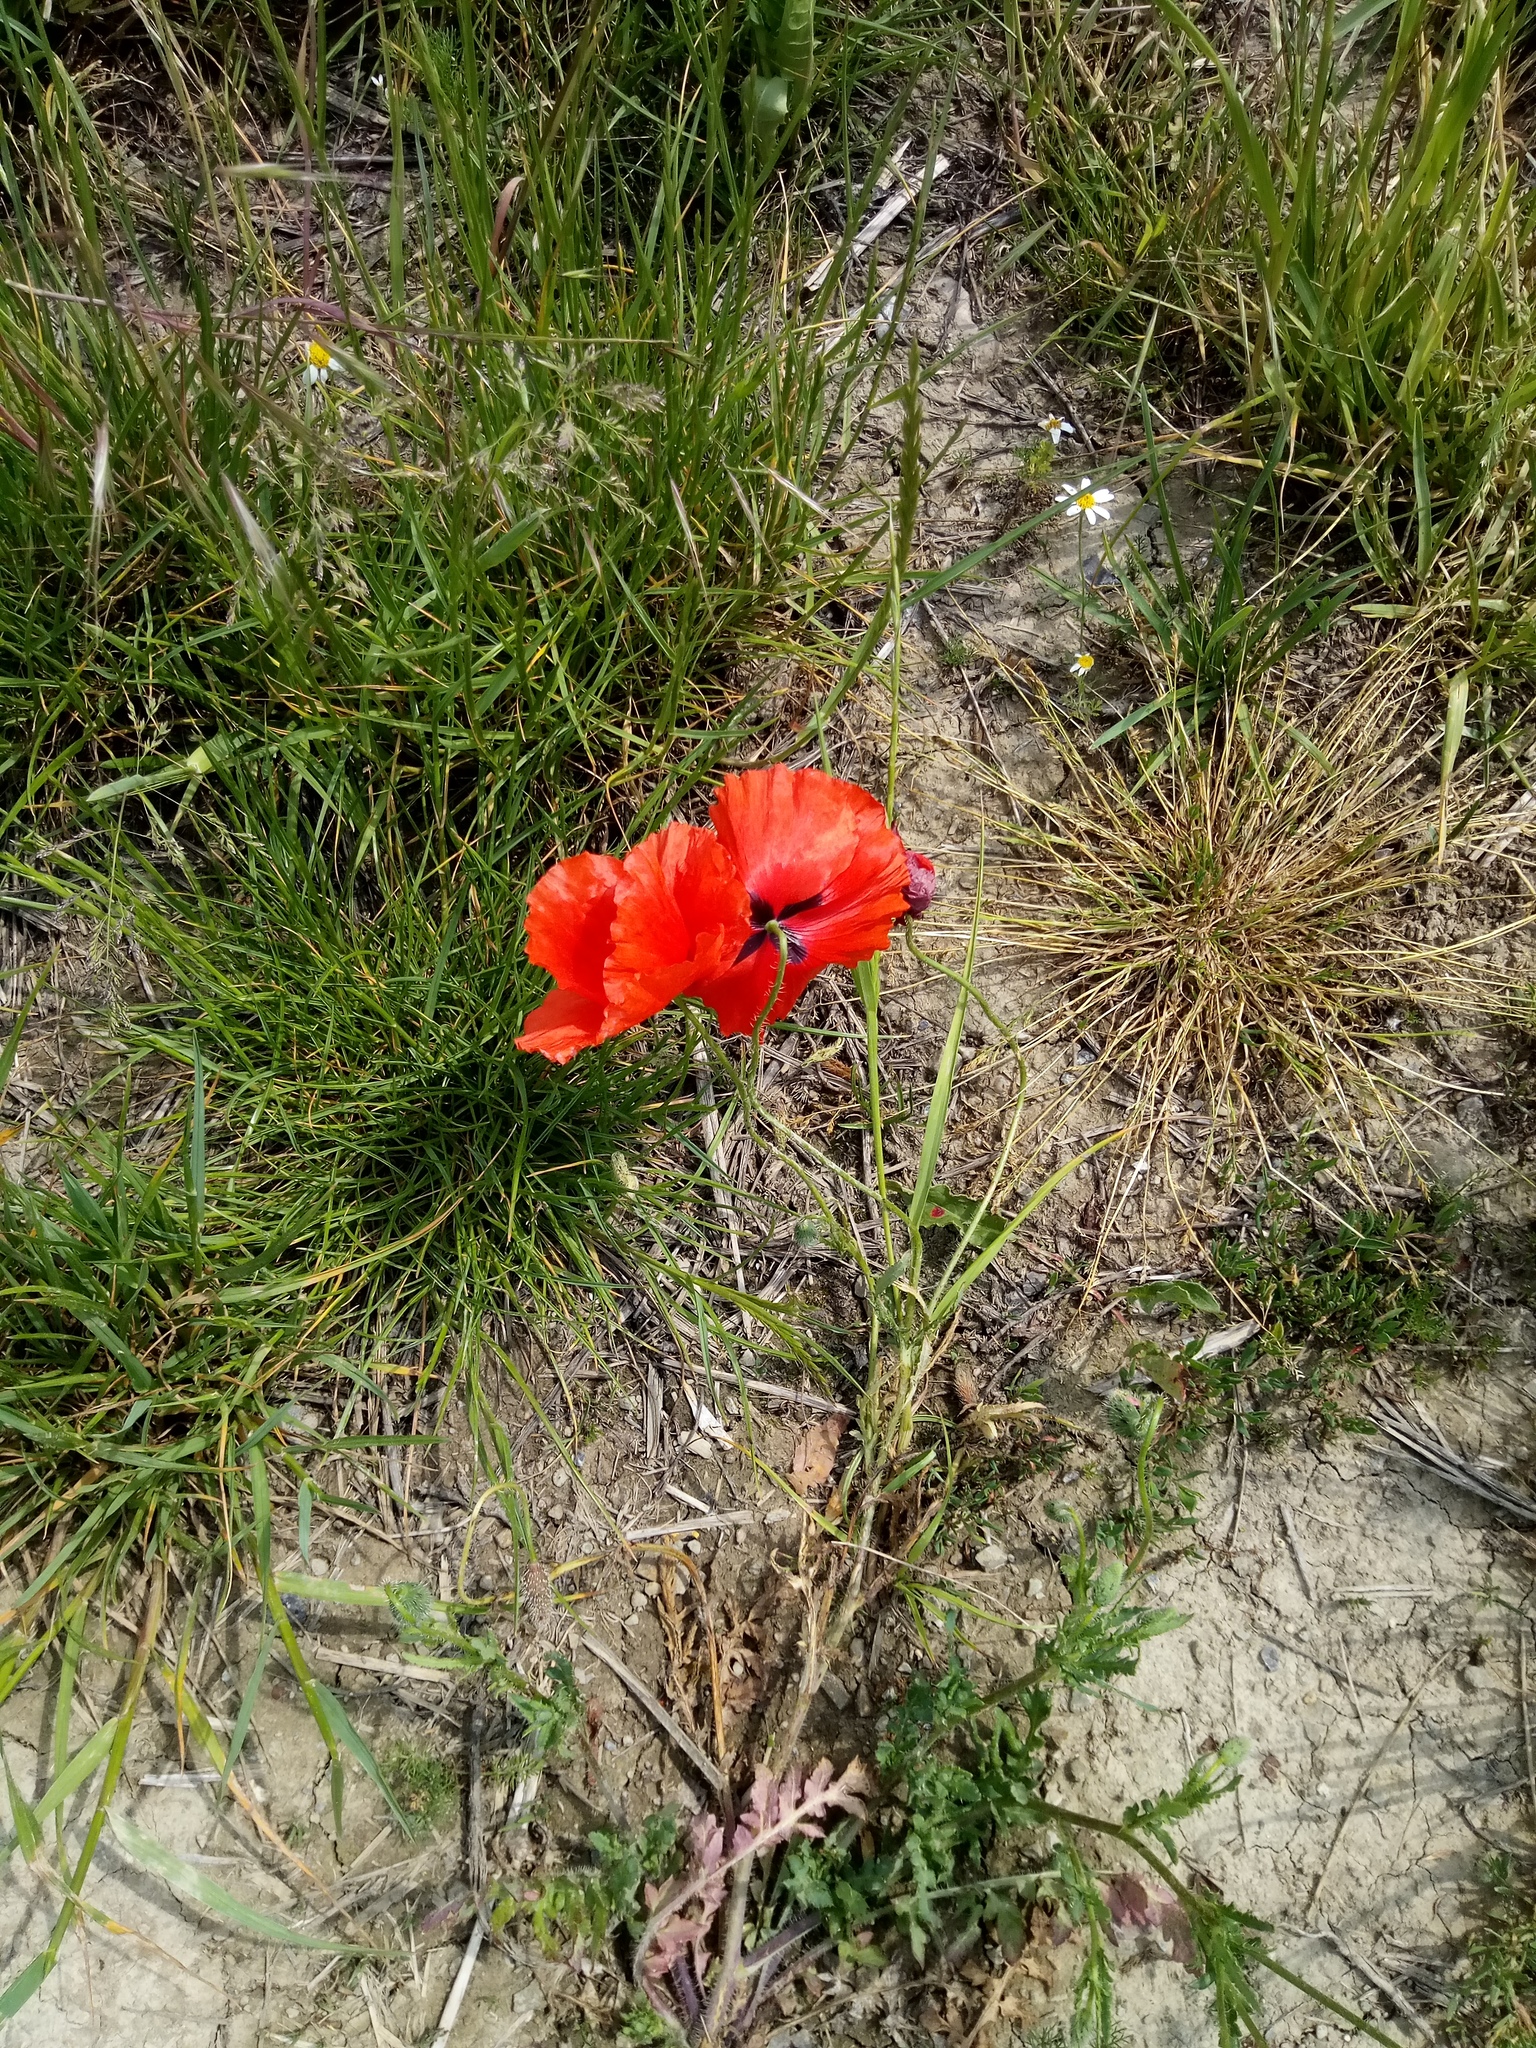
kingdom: Plantae
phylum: Tracheophyta
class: Magnoliopsida
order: Ranunculales
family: Papaveraceae
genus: Papaver
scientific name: Papaver rhoeas
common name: Corn poppy
